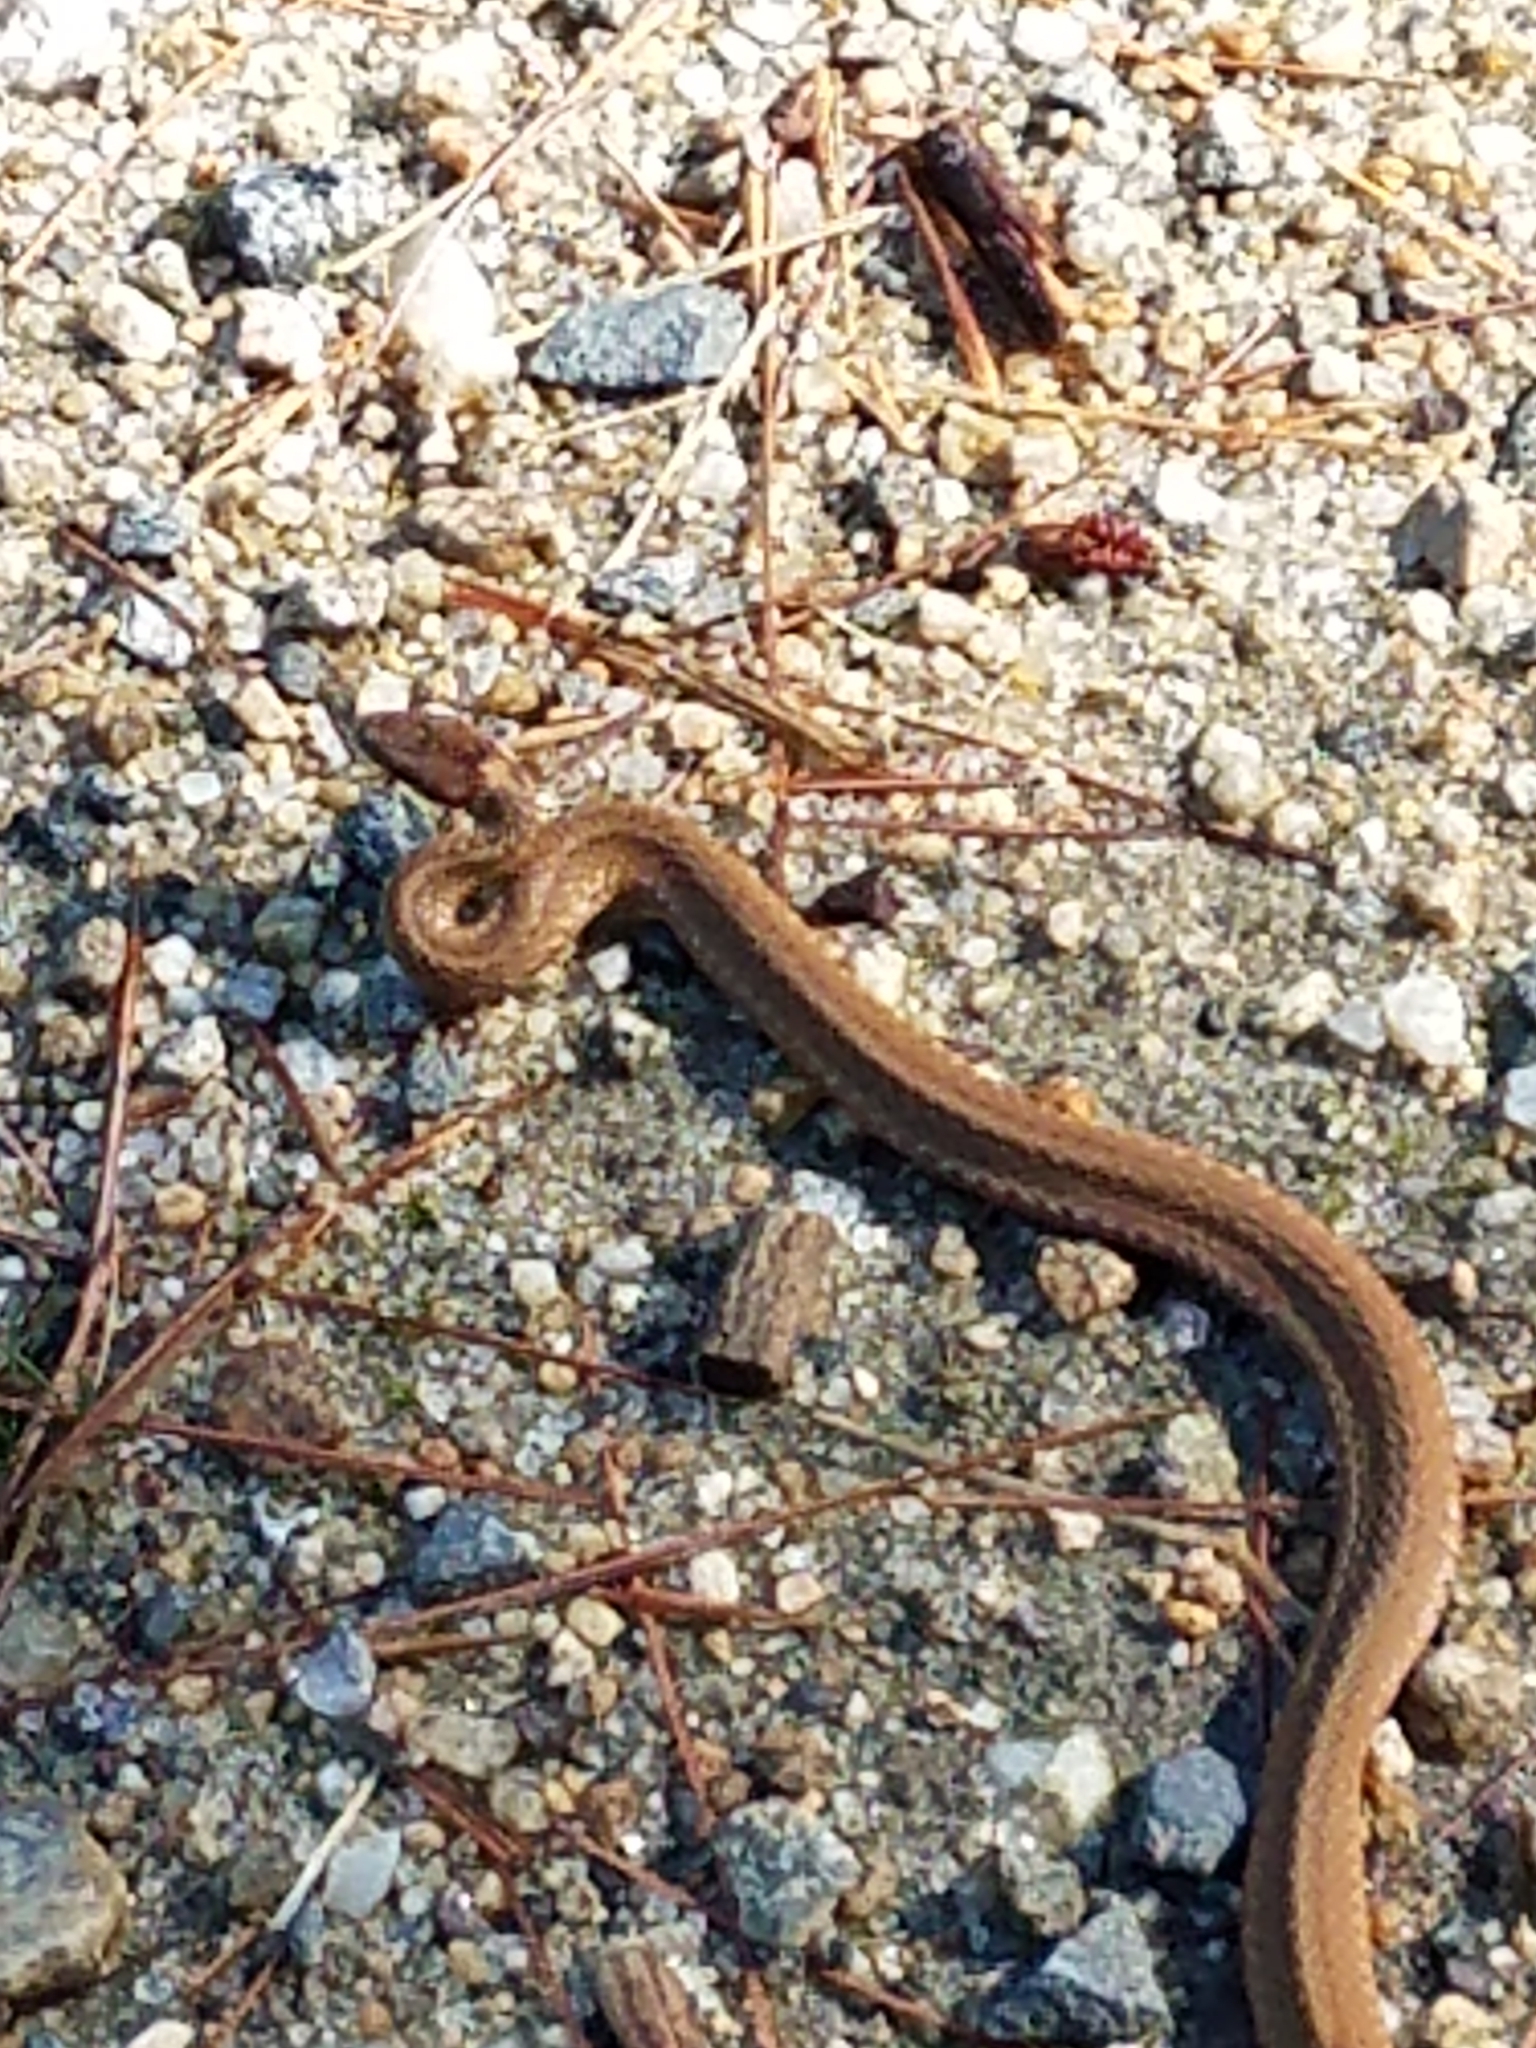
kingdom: Animalia
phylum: Chordata
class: Squamata
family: Colubridae
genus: Storeria
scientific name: Storeria occipitomaculata
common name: Redbelly snake
